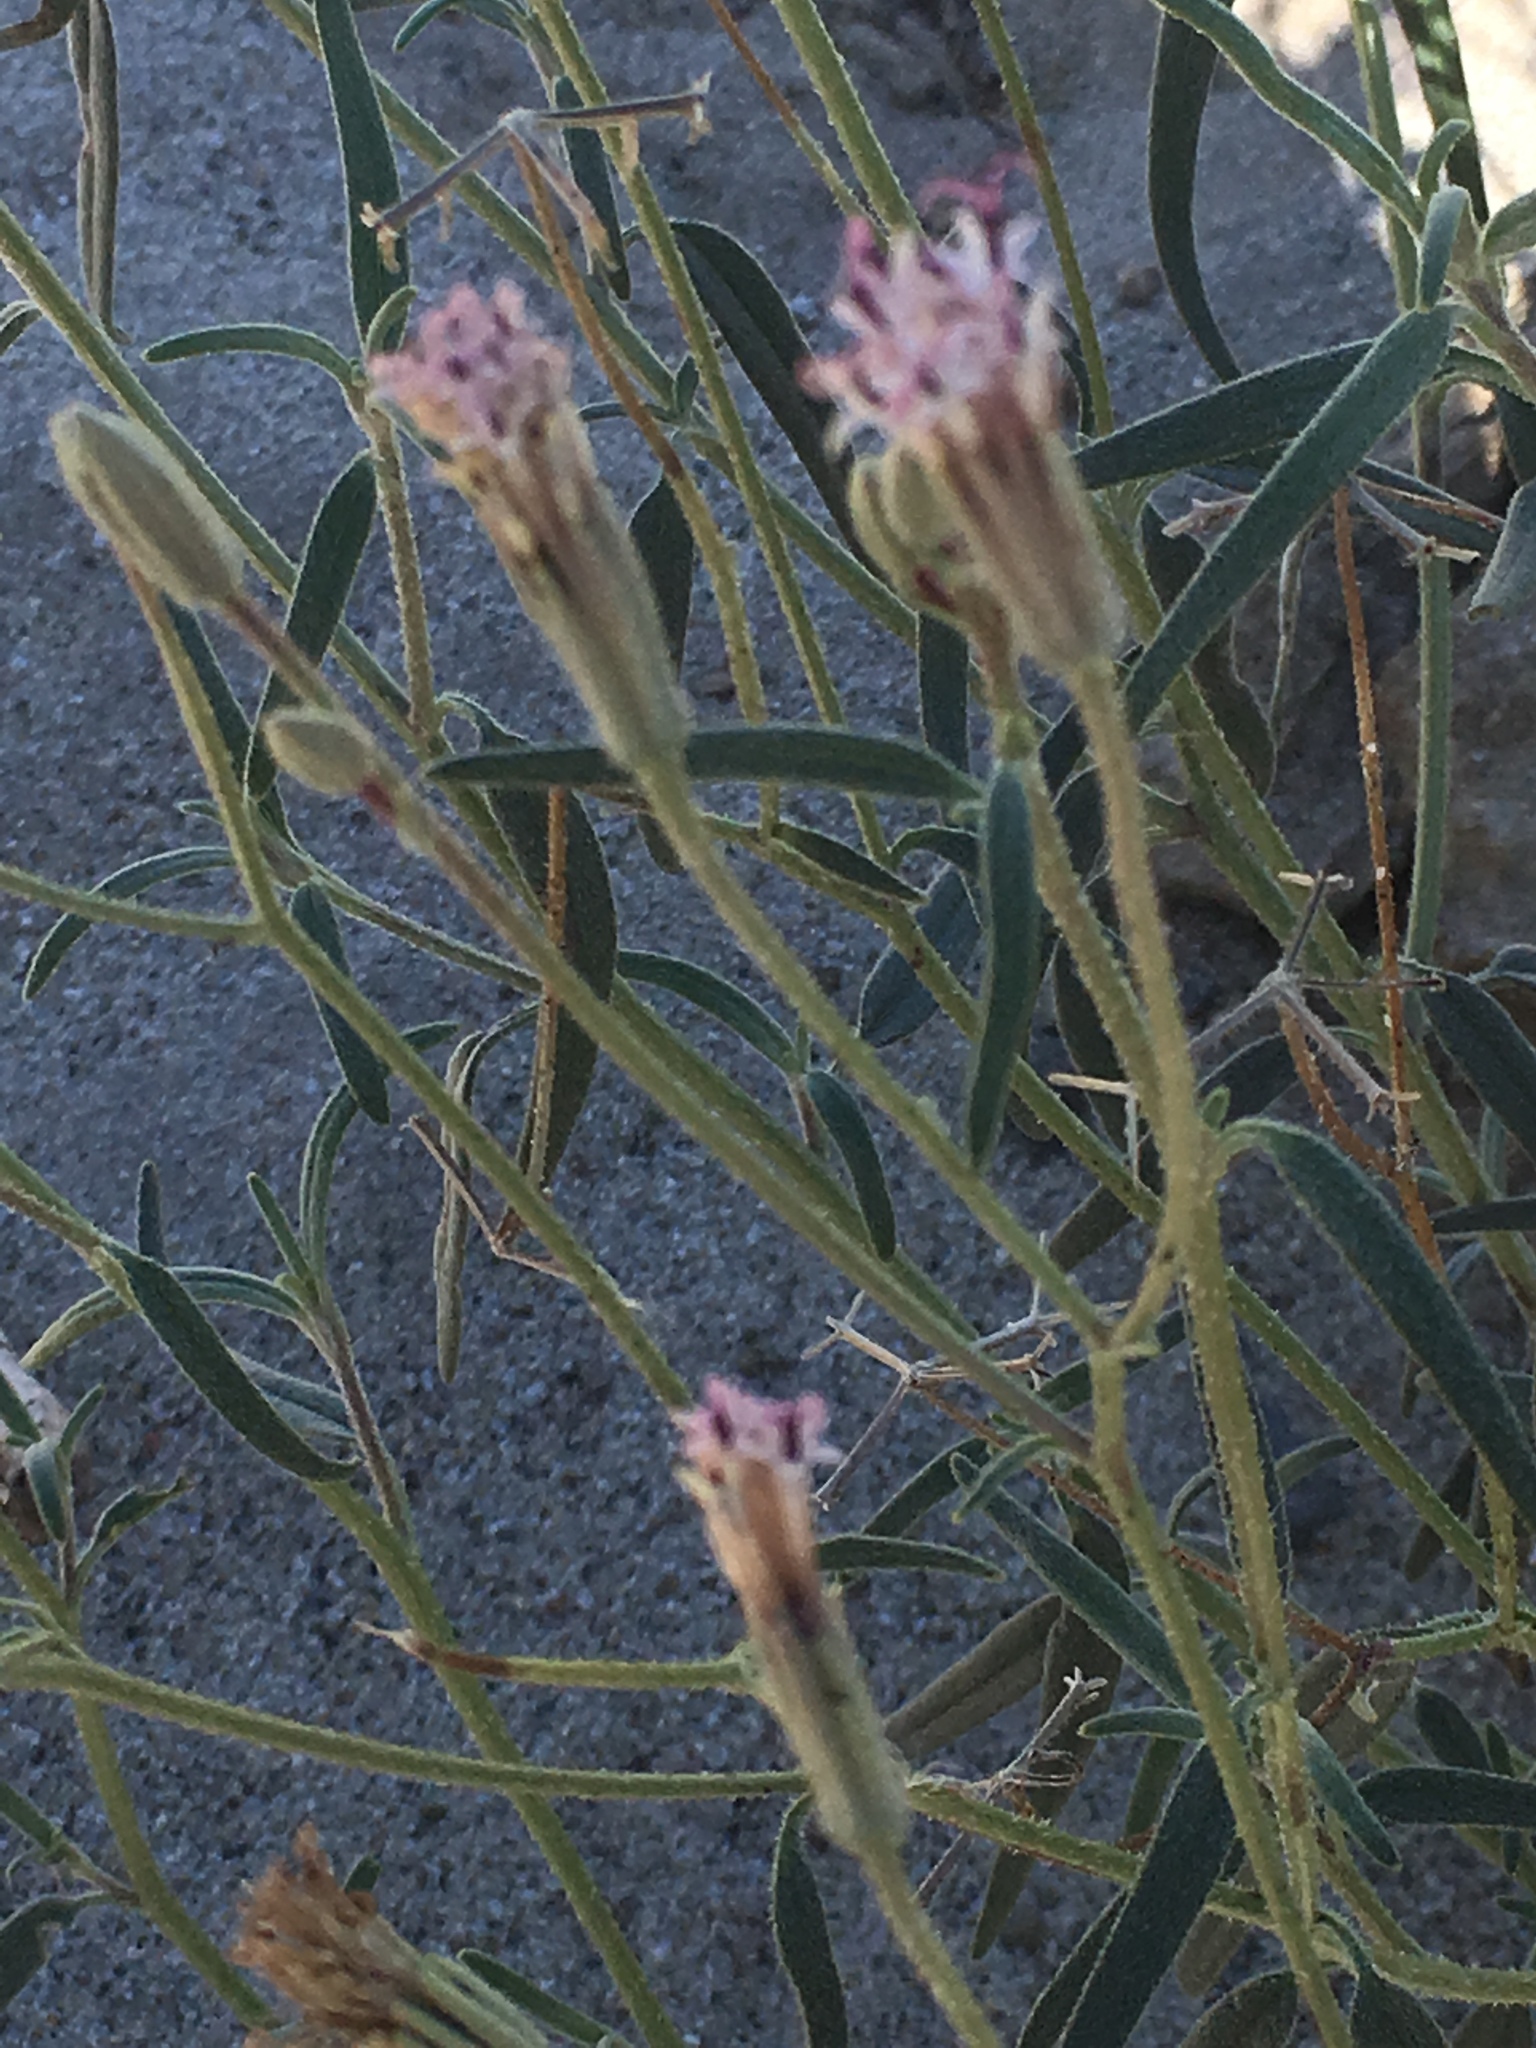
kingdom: Plantae
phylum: Tracheophyta
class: Magnoliopsida
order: Asterales
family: Asteraceae
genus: Palafoxia
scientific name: Palafoxia arida
